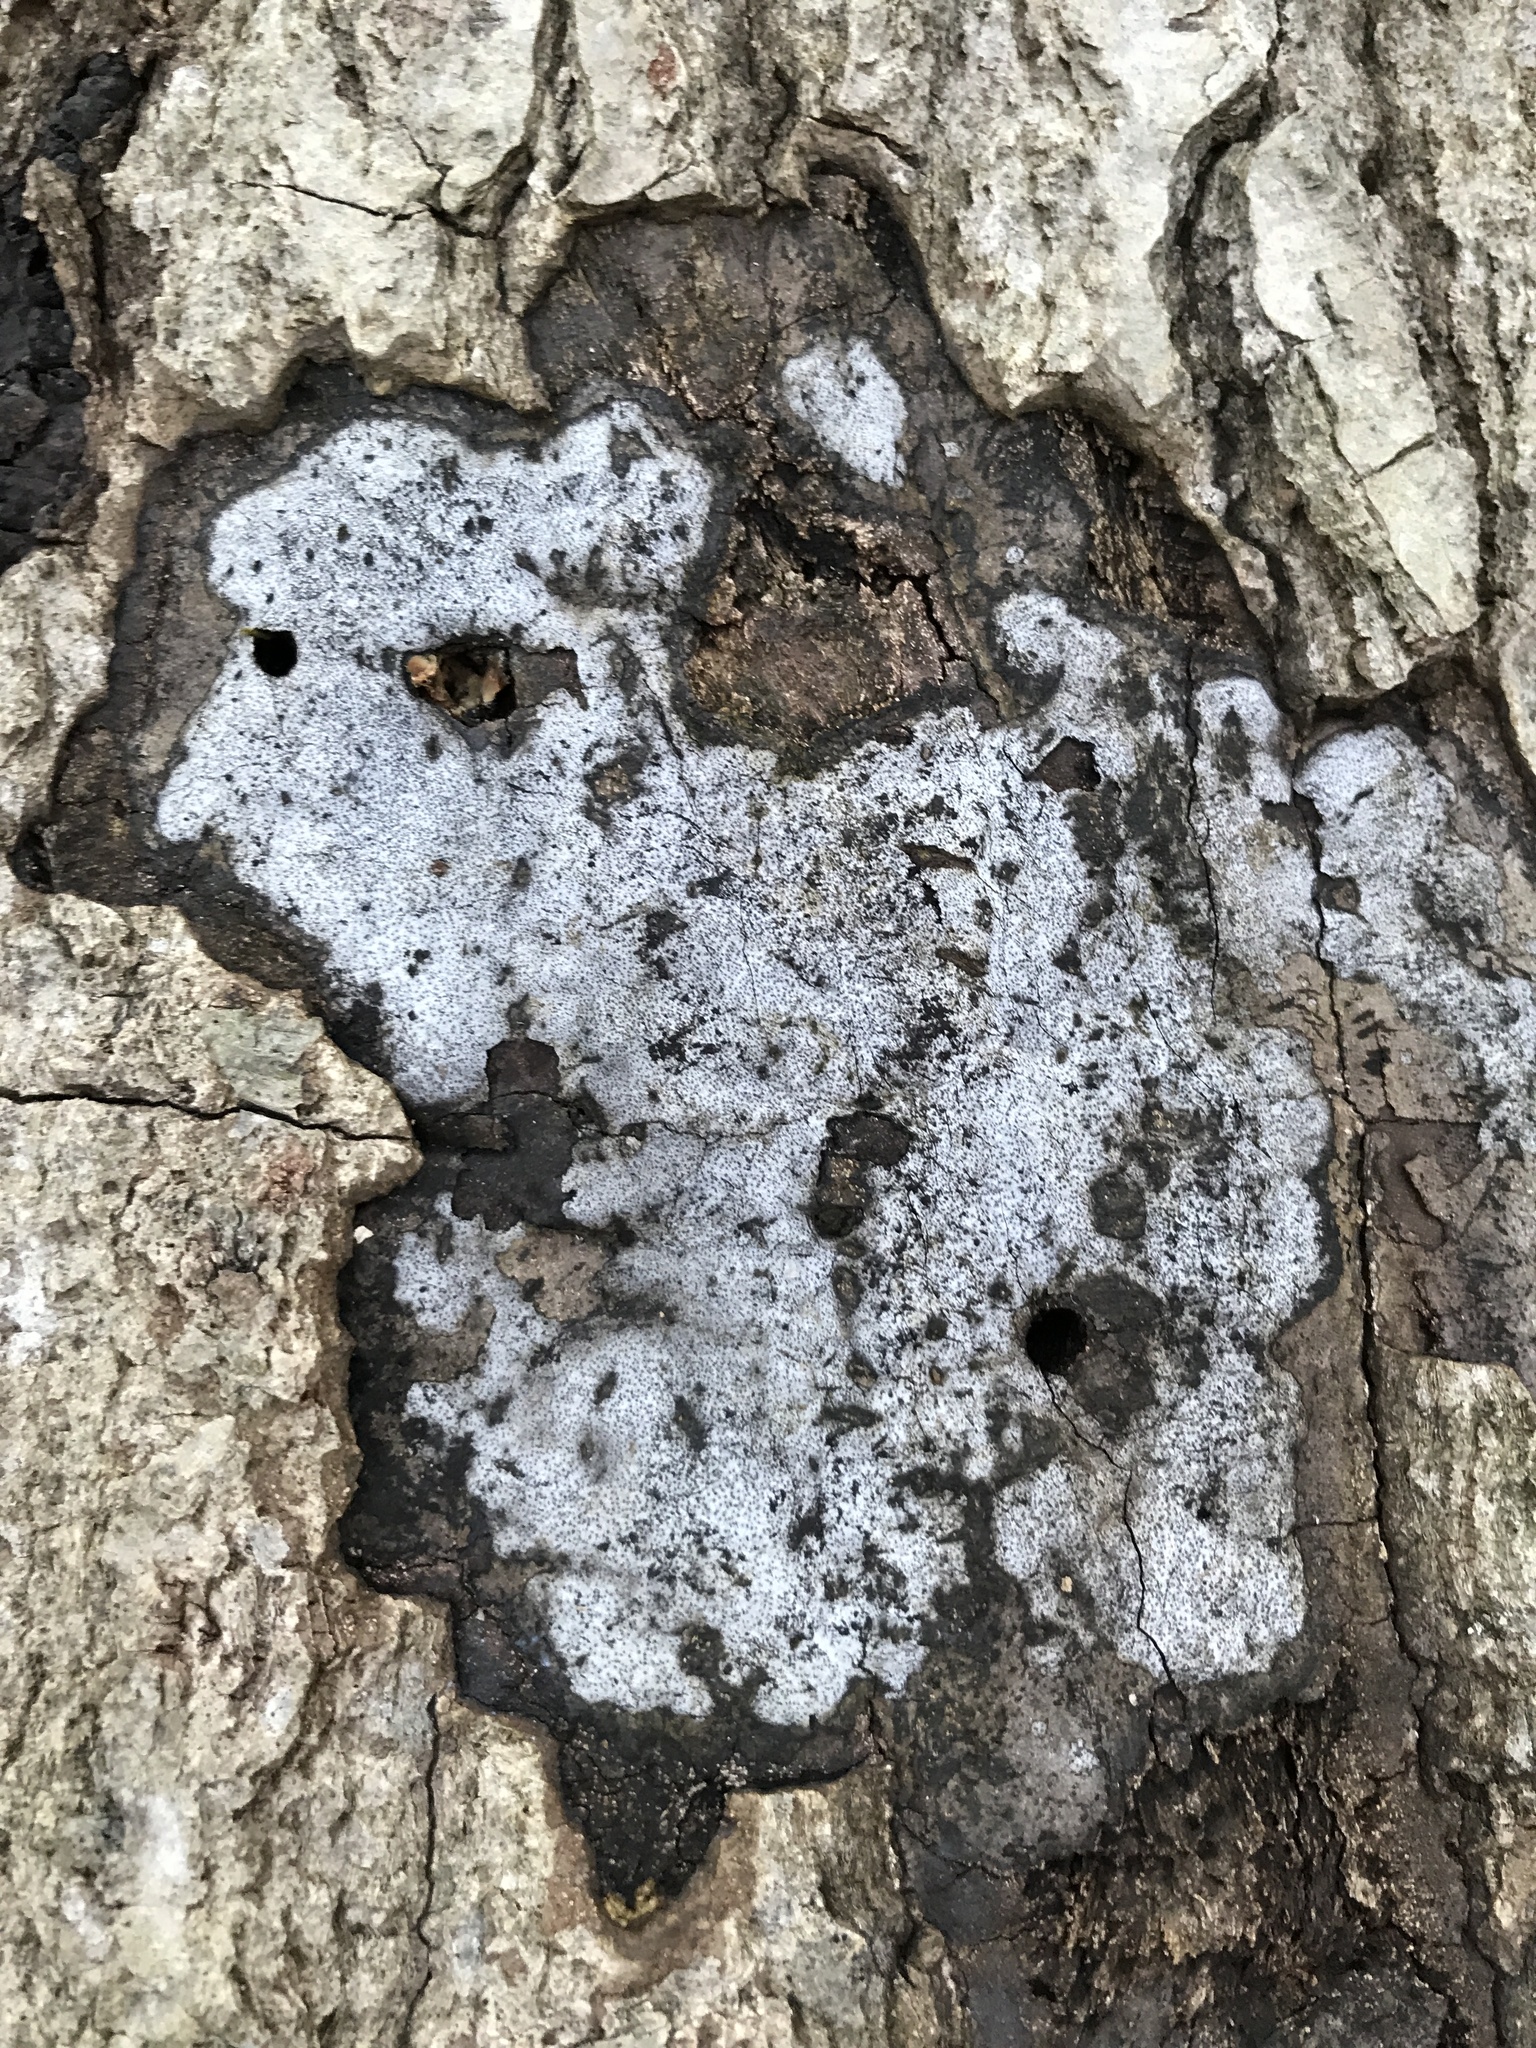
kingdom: Fungi
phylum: Ascomycota
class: Sordariomycetes
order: Xylariales
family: Graphostromataceae
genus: Biscogniauxia
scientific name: Biscogniauxia atropunctata
